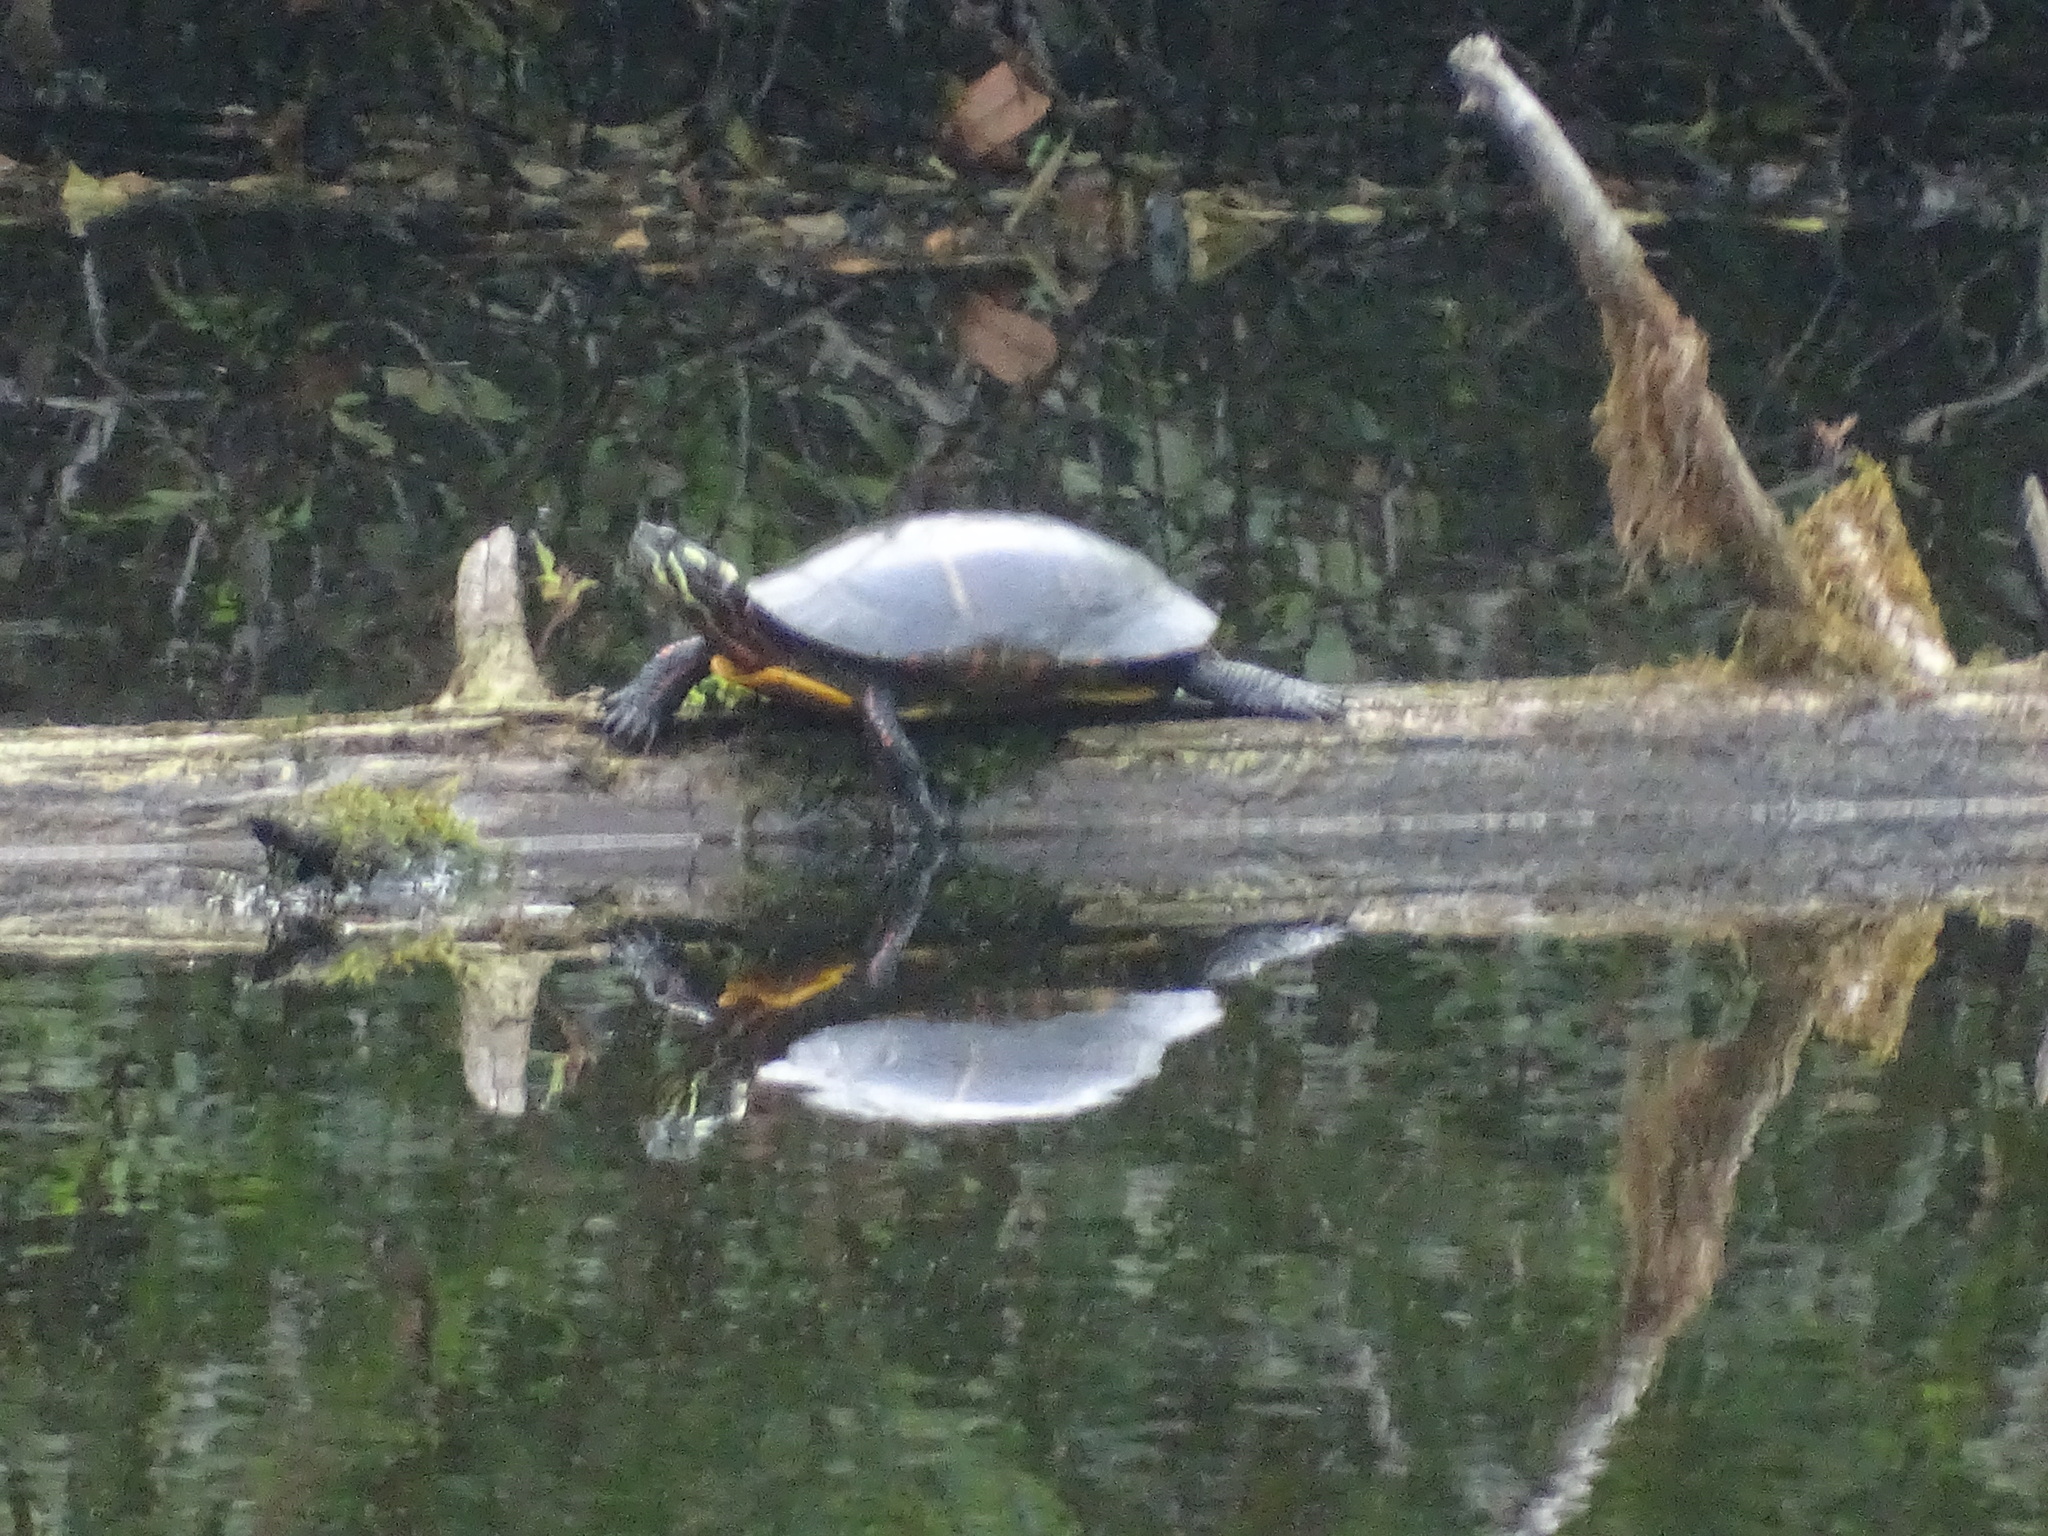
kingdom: Animalia
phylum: Chordata
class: Testudines
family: Emydidae
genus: Chrysemys
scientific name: Chrysemys picta
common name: Painted turtle
